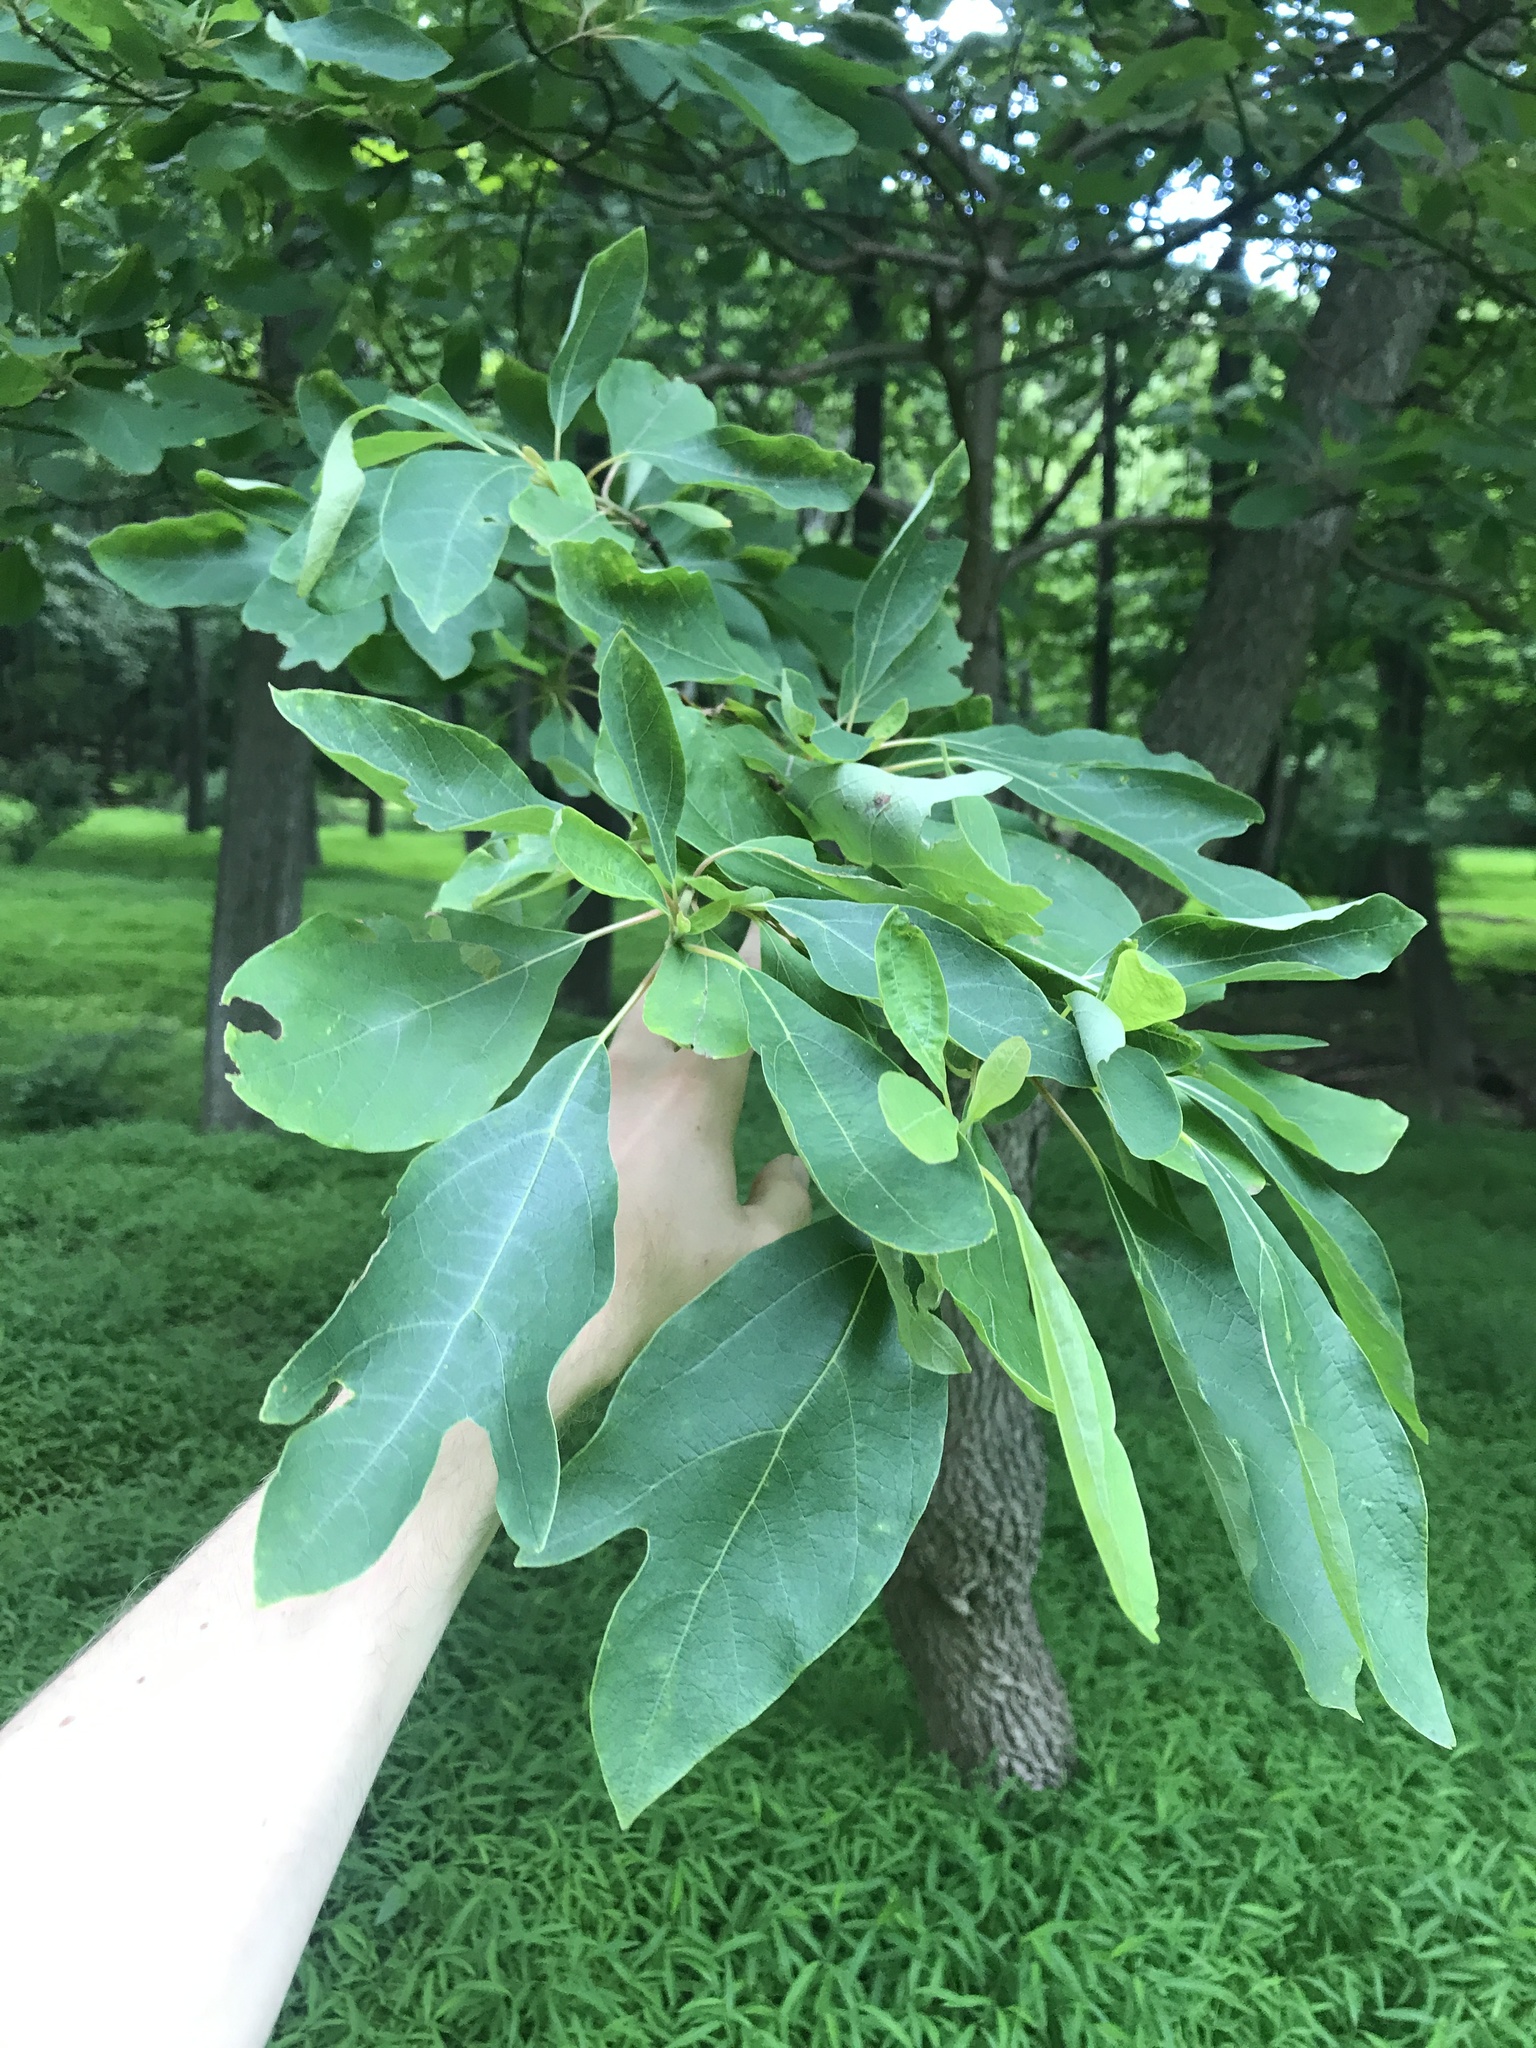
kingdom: Plantae
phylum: Tracheophyta
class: Magnoliopsida
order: Laurales
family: Lauraceae
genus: Sassafras
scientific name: Sassafras albidum
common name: Sassafras
